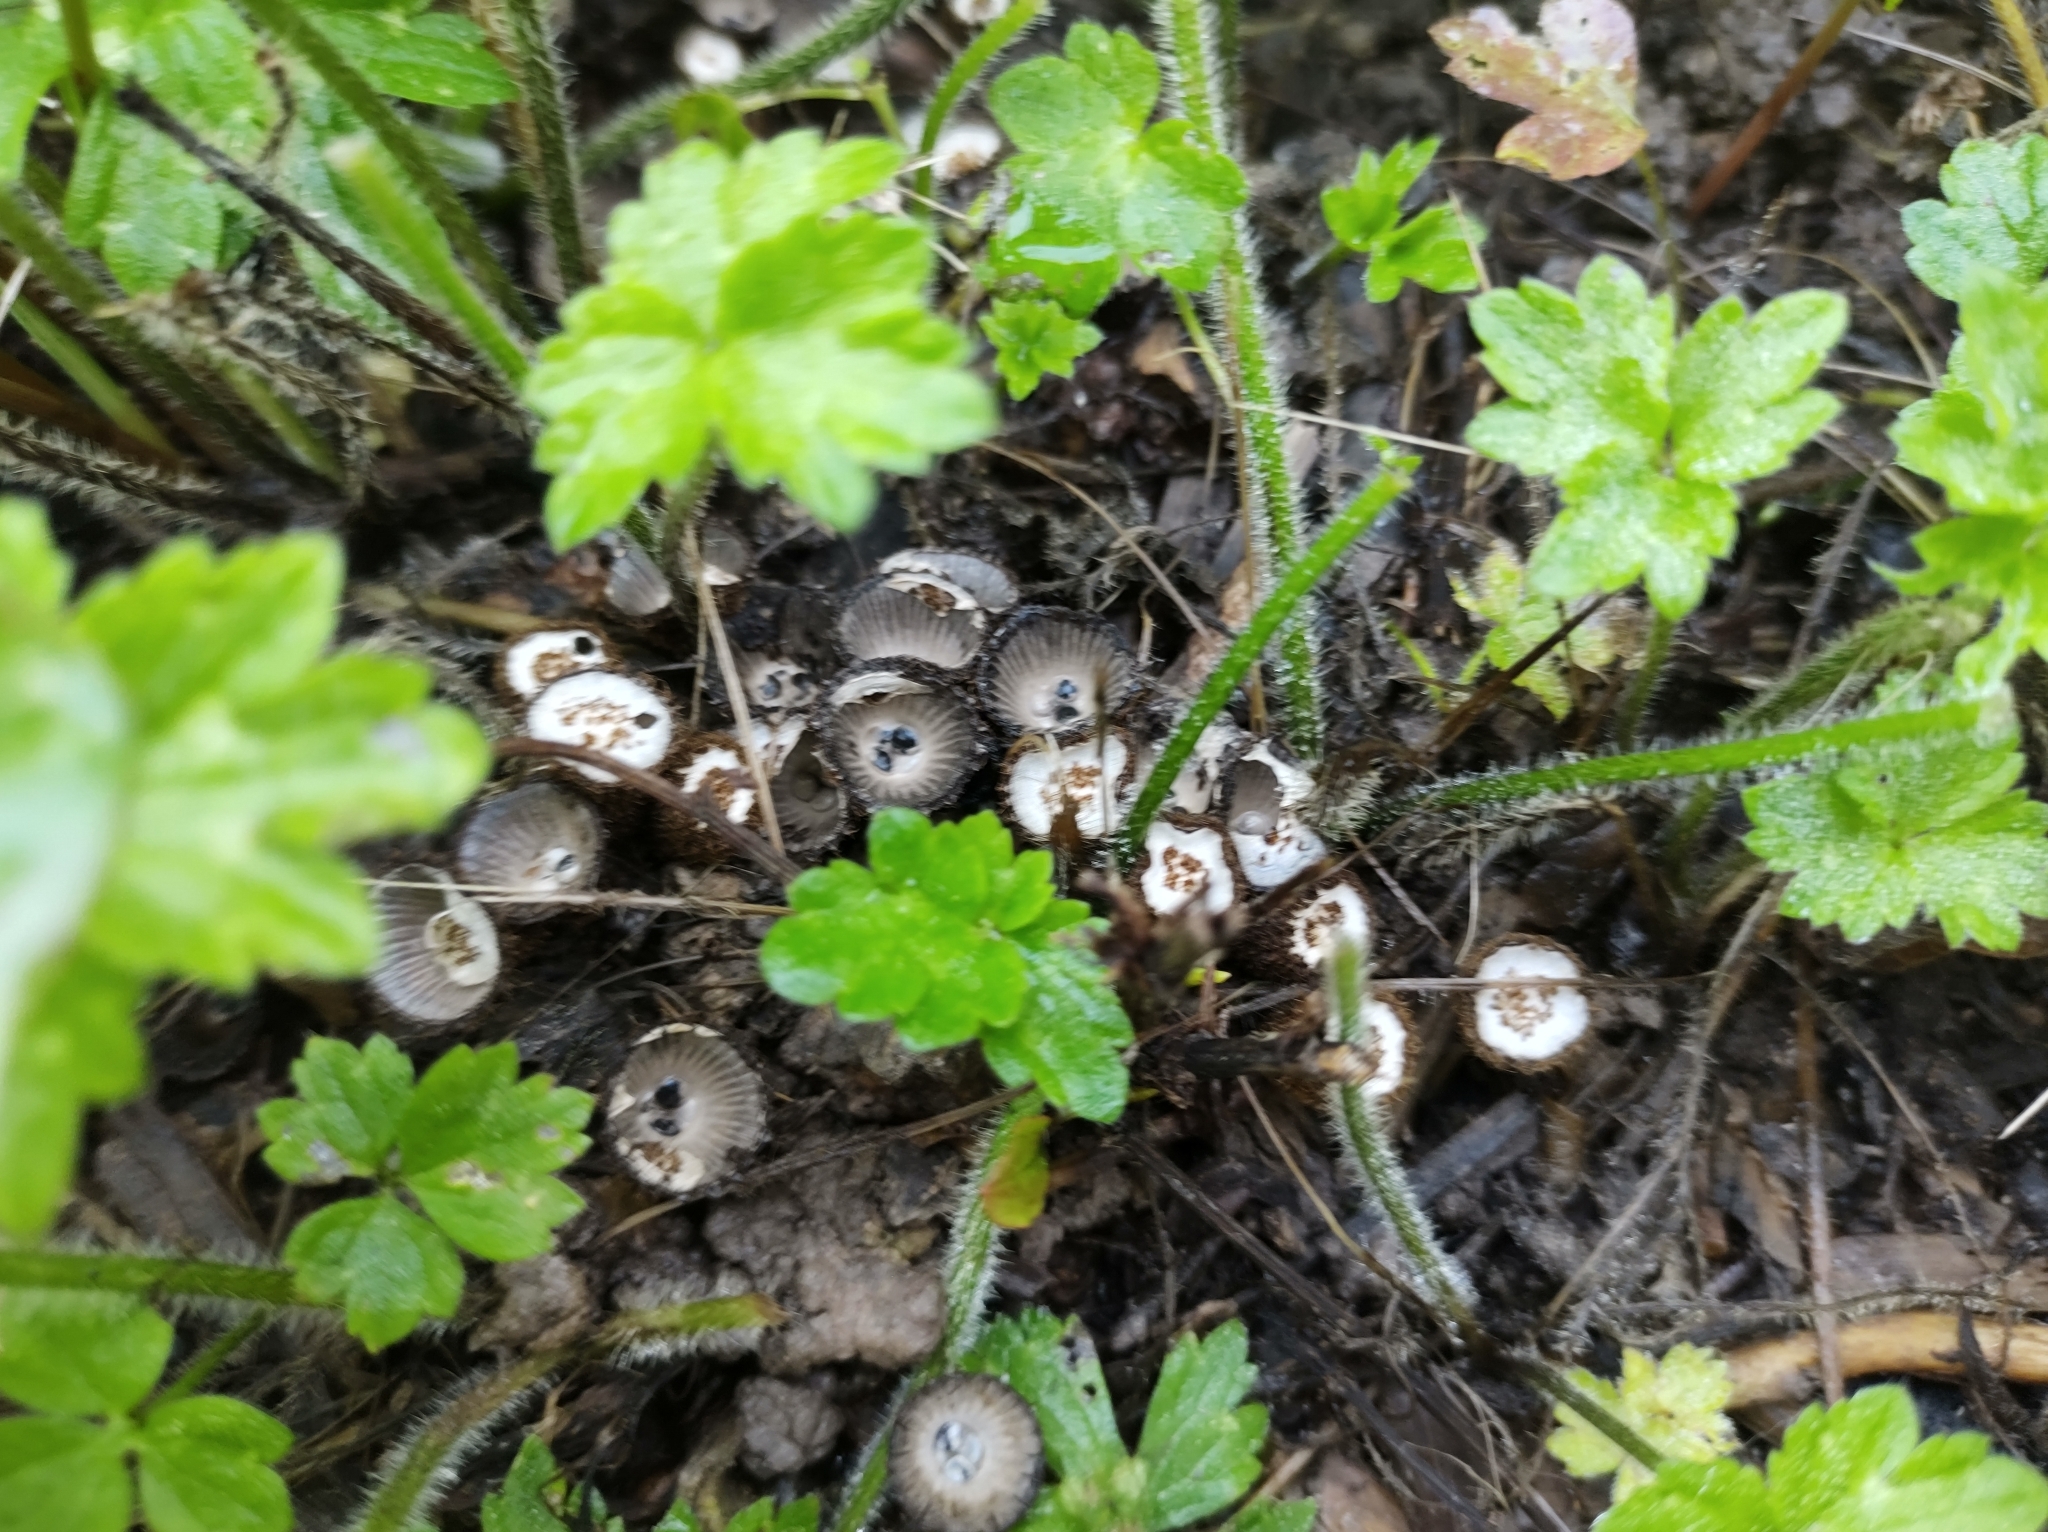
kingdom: Fungi
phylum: Basidiomycota
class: Agaricomycetes
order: Agaricales
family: Agaricaceae
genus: Cyathus
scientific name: Cyathus striatus
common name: Fluted bird's nest
